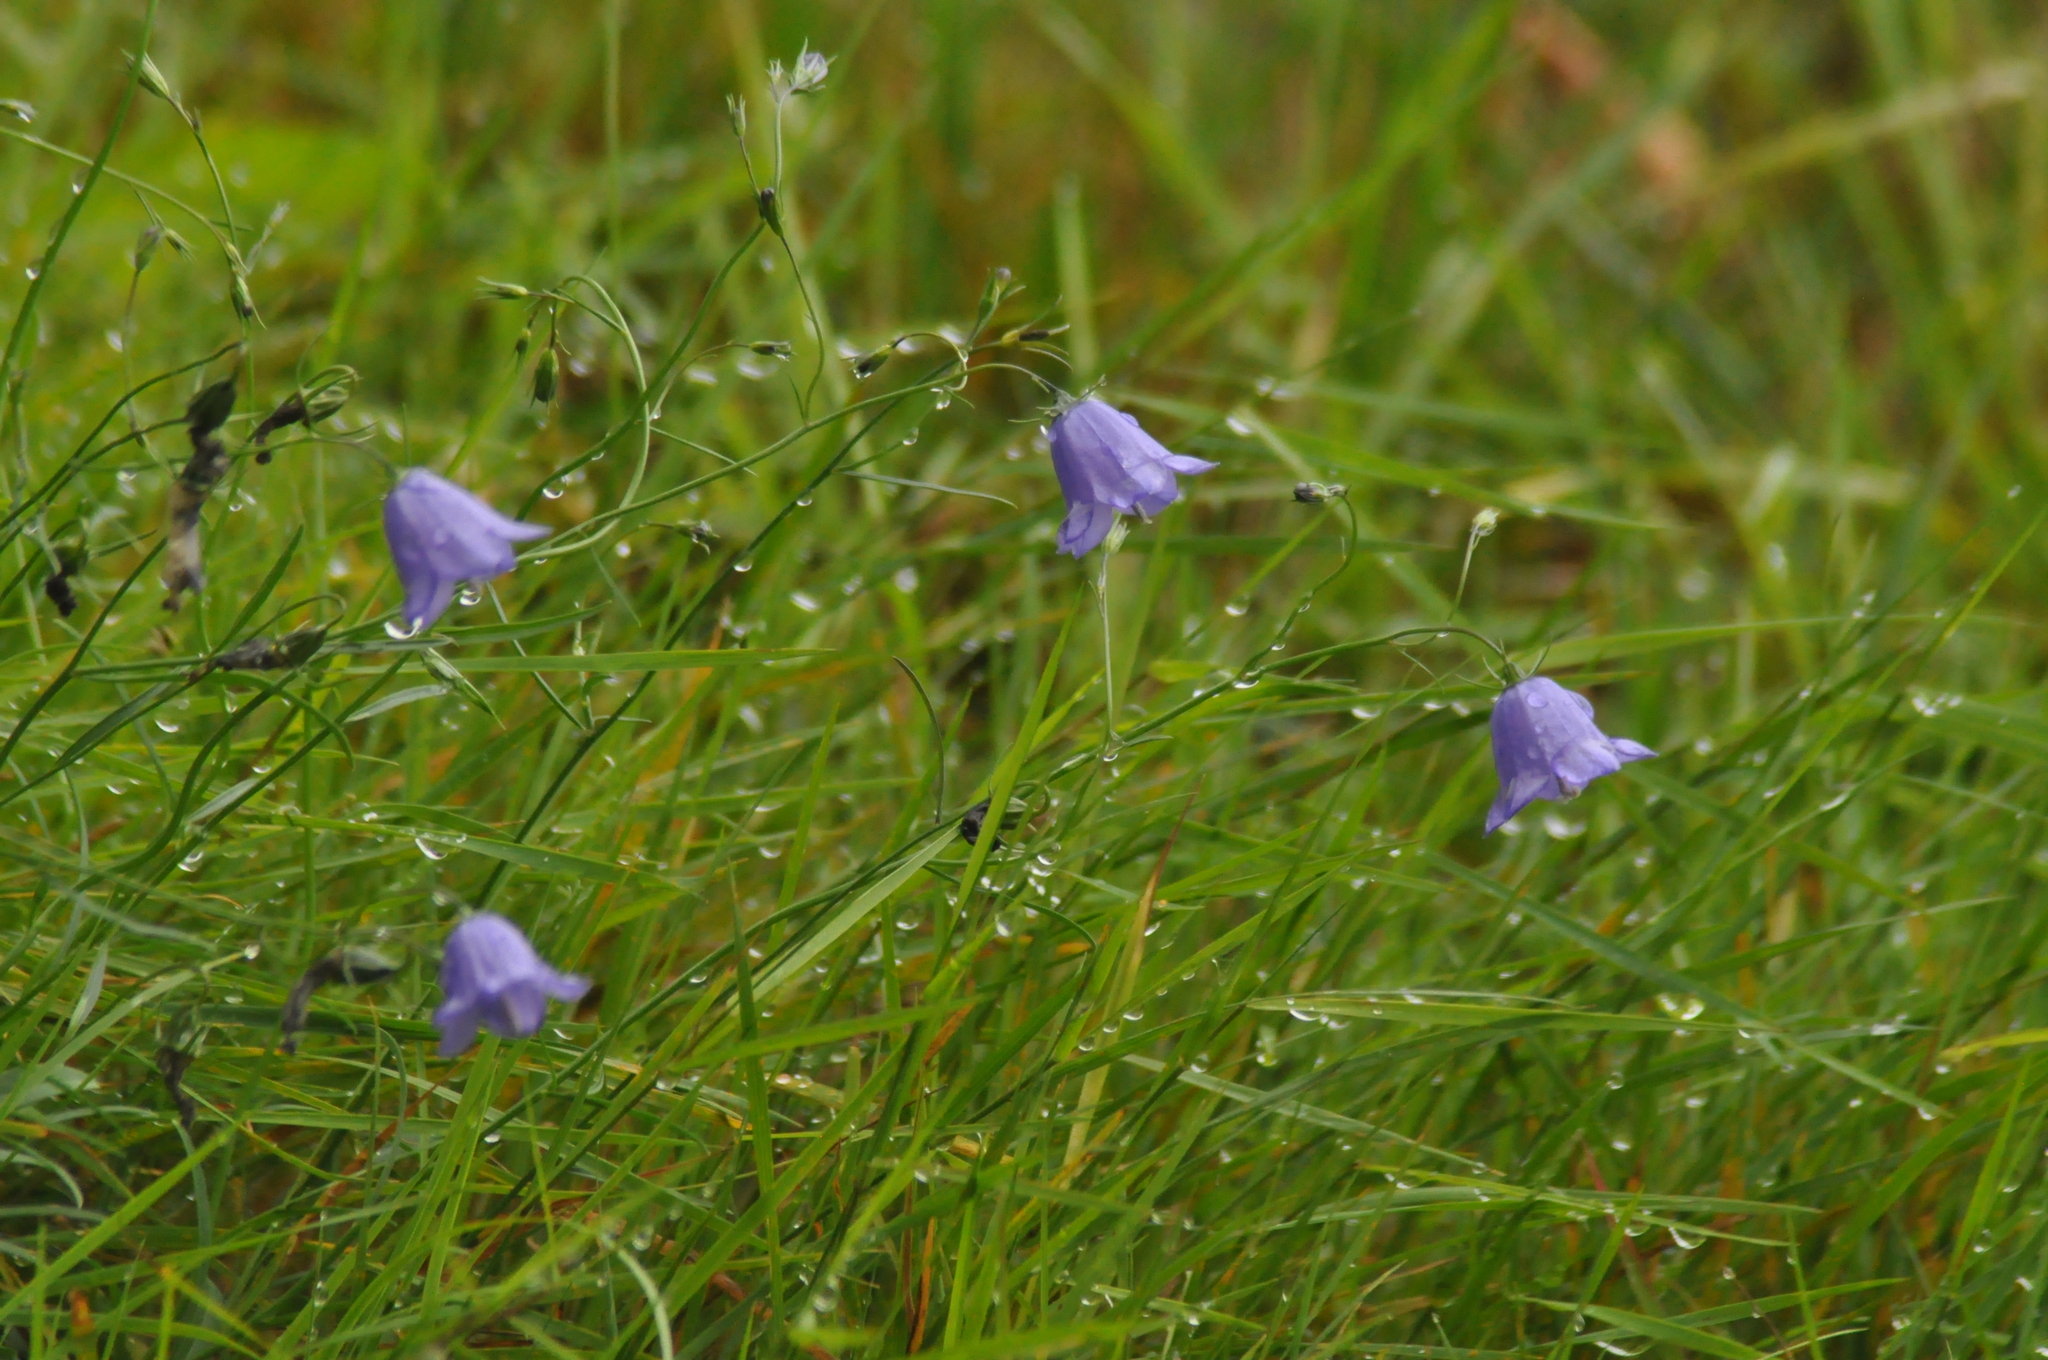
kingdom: Plantae
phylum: Tracheophyta
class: Magnoliopsida
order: Asterales
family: Campanulaceae
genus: Campanula
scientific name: Campanula rotundifolia
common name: Harebell
